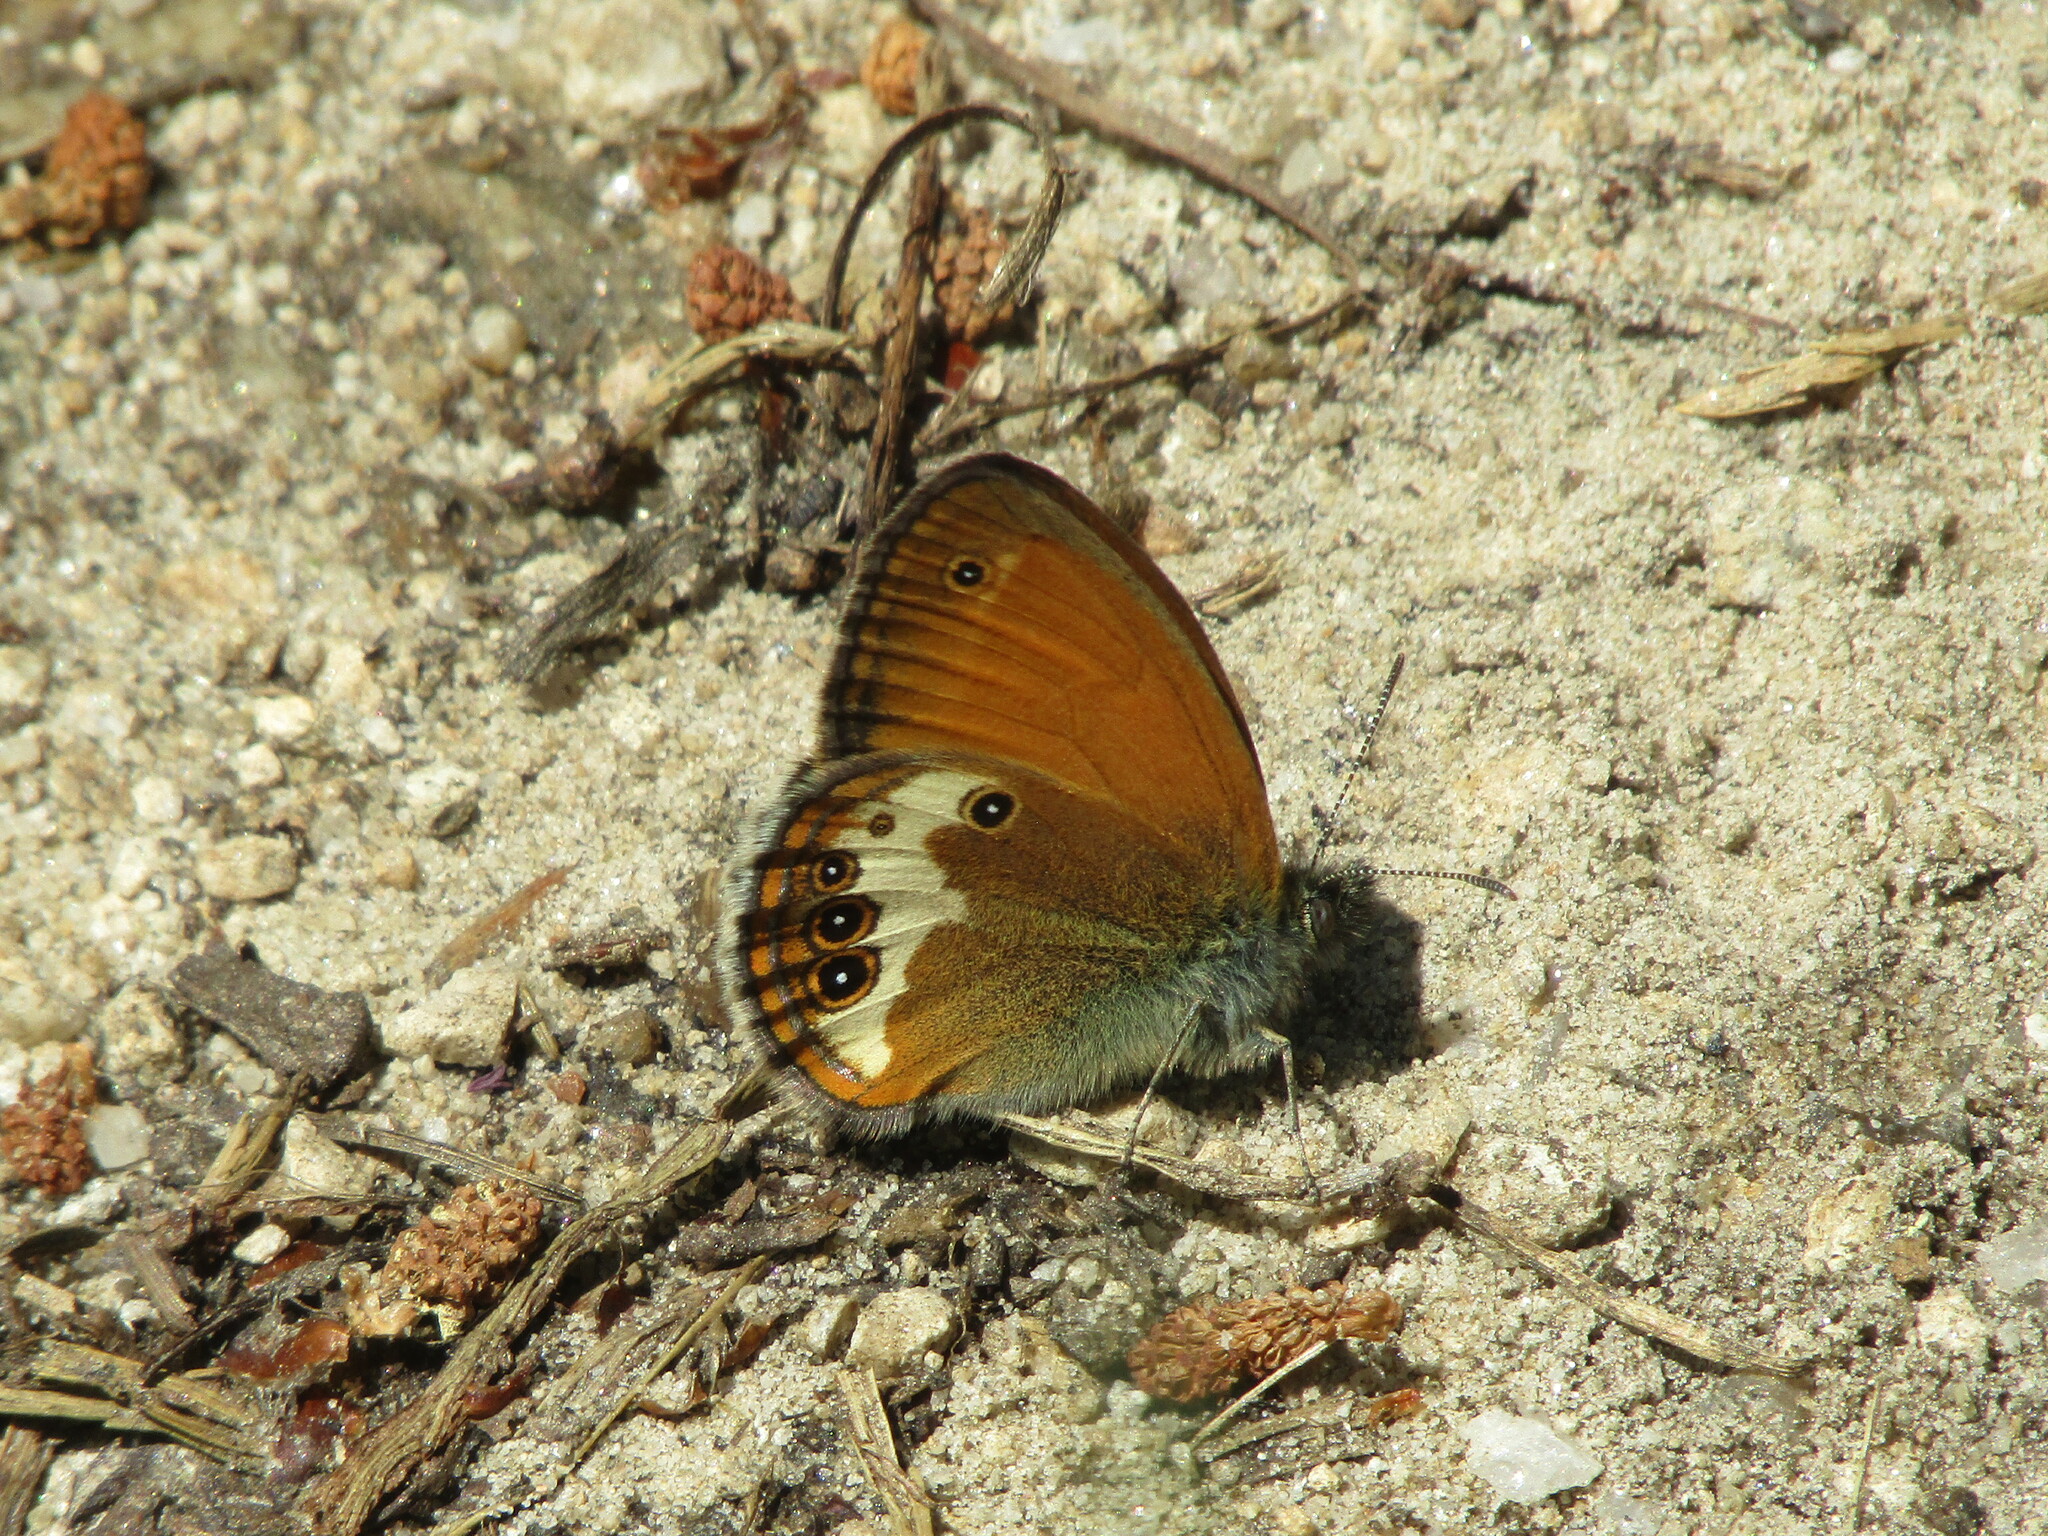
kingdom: Animalia
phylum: Arthropoda
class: Insecta
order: Lepidoptera
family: Nymphalidae
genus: Coenonympha
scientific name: Coenonympha arcania
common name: Pearly heath
